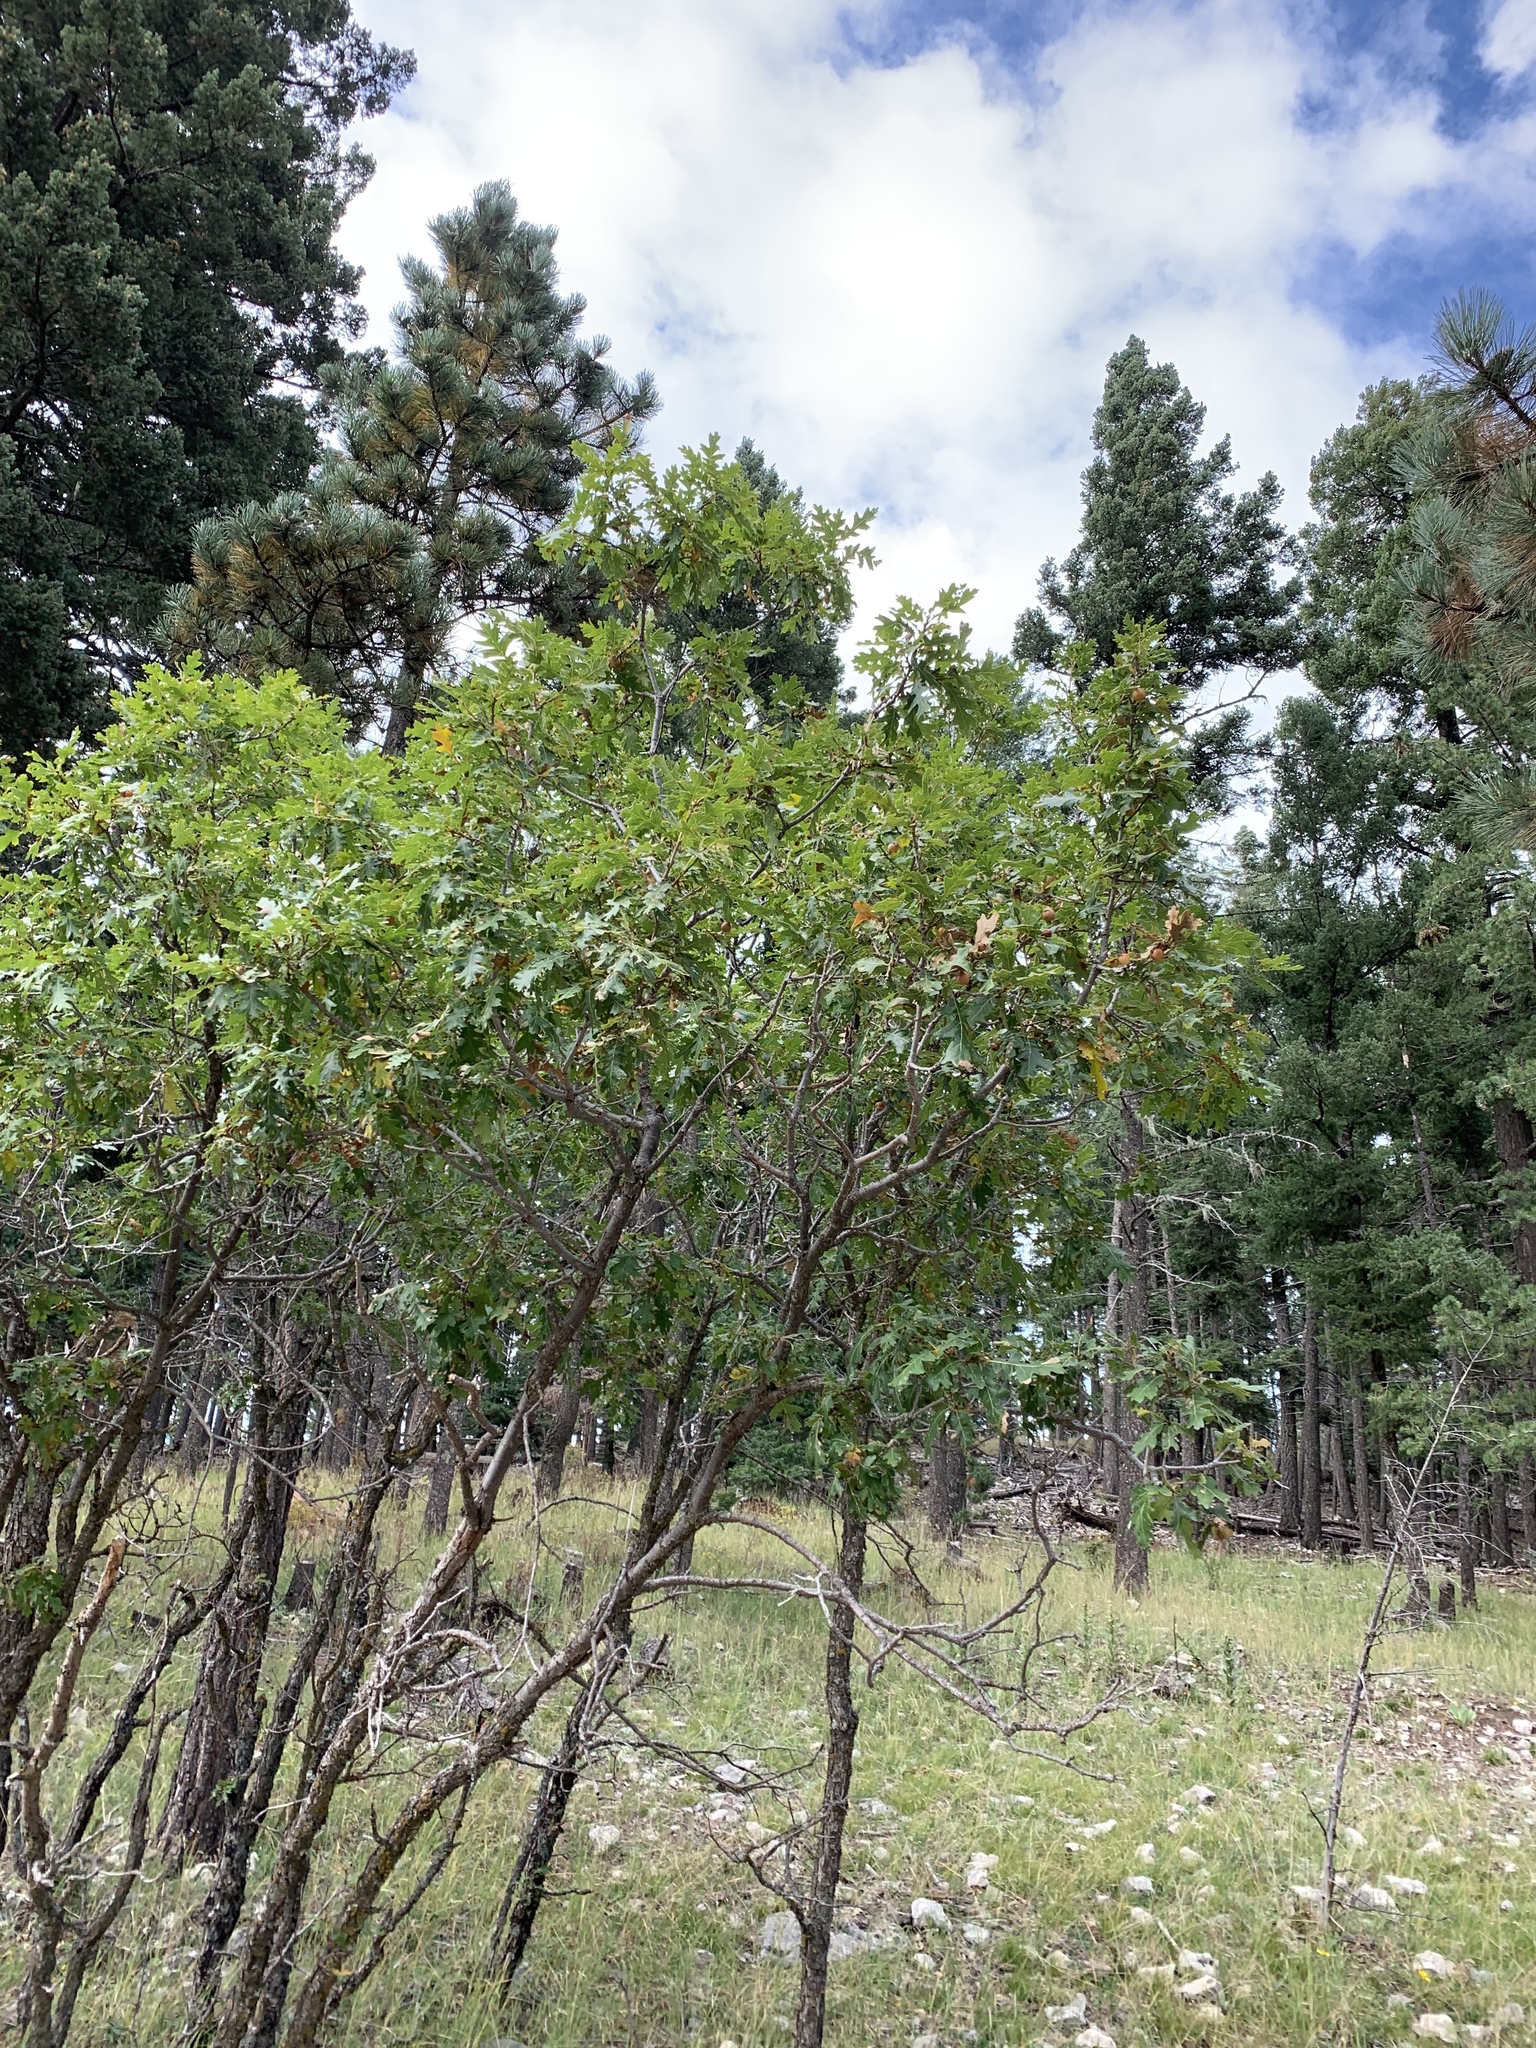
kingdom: Plantae
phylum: Tracheophyta
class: Magnoliopsida
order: Fagales
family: Fagaceae
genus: Quercus
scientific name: Quercus gambelii
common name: Gambel oak
